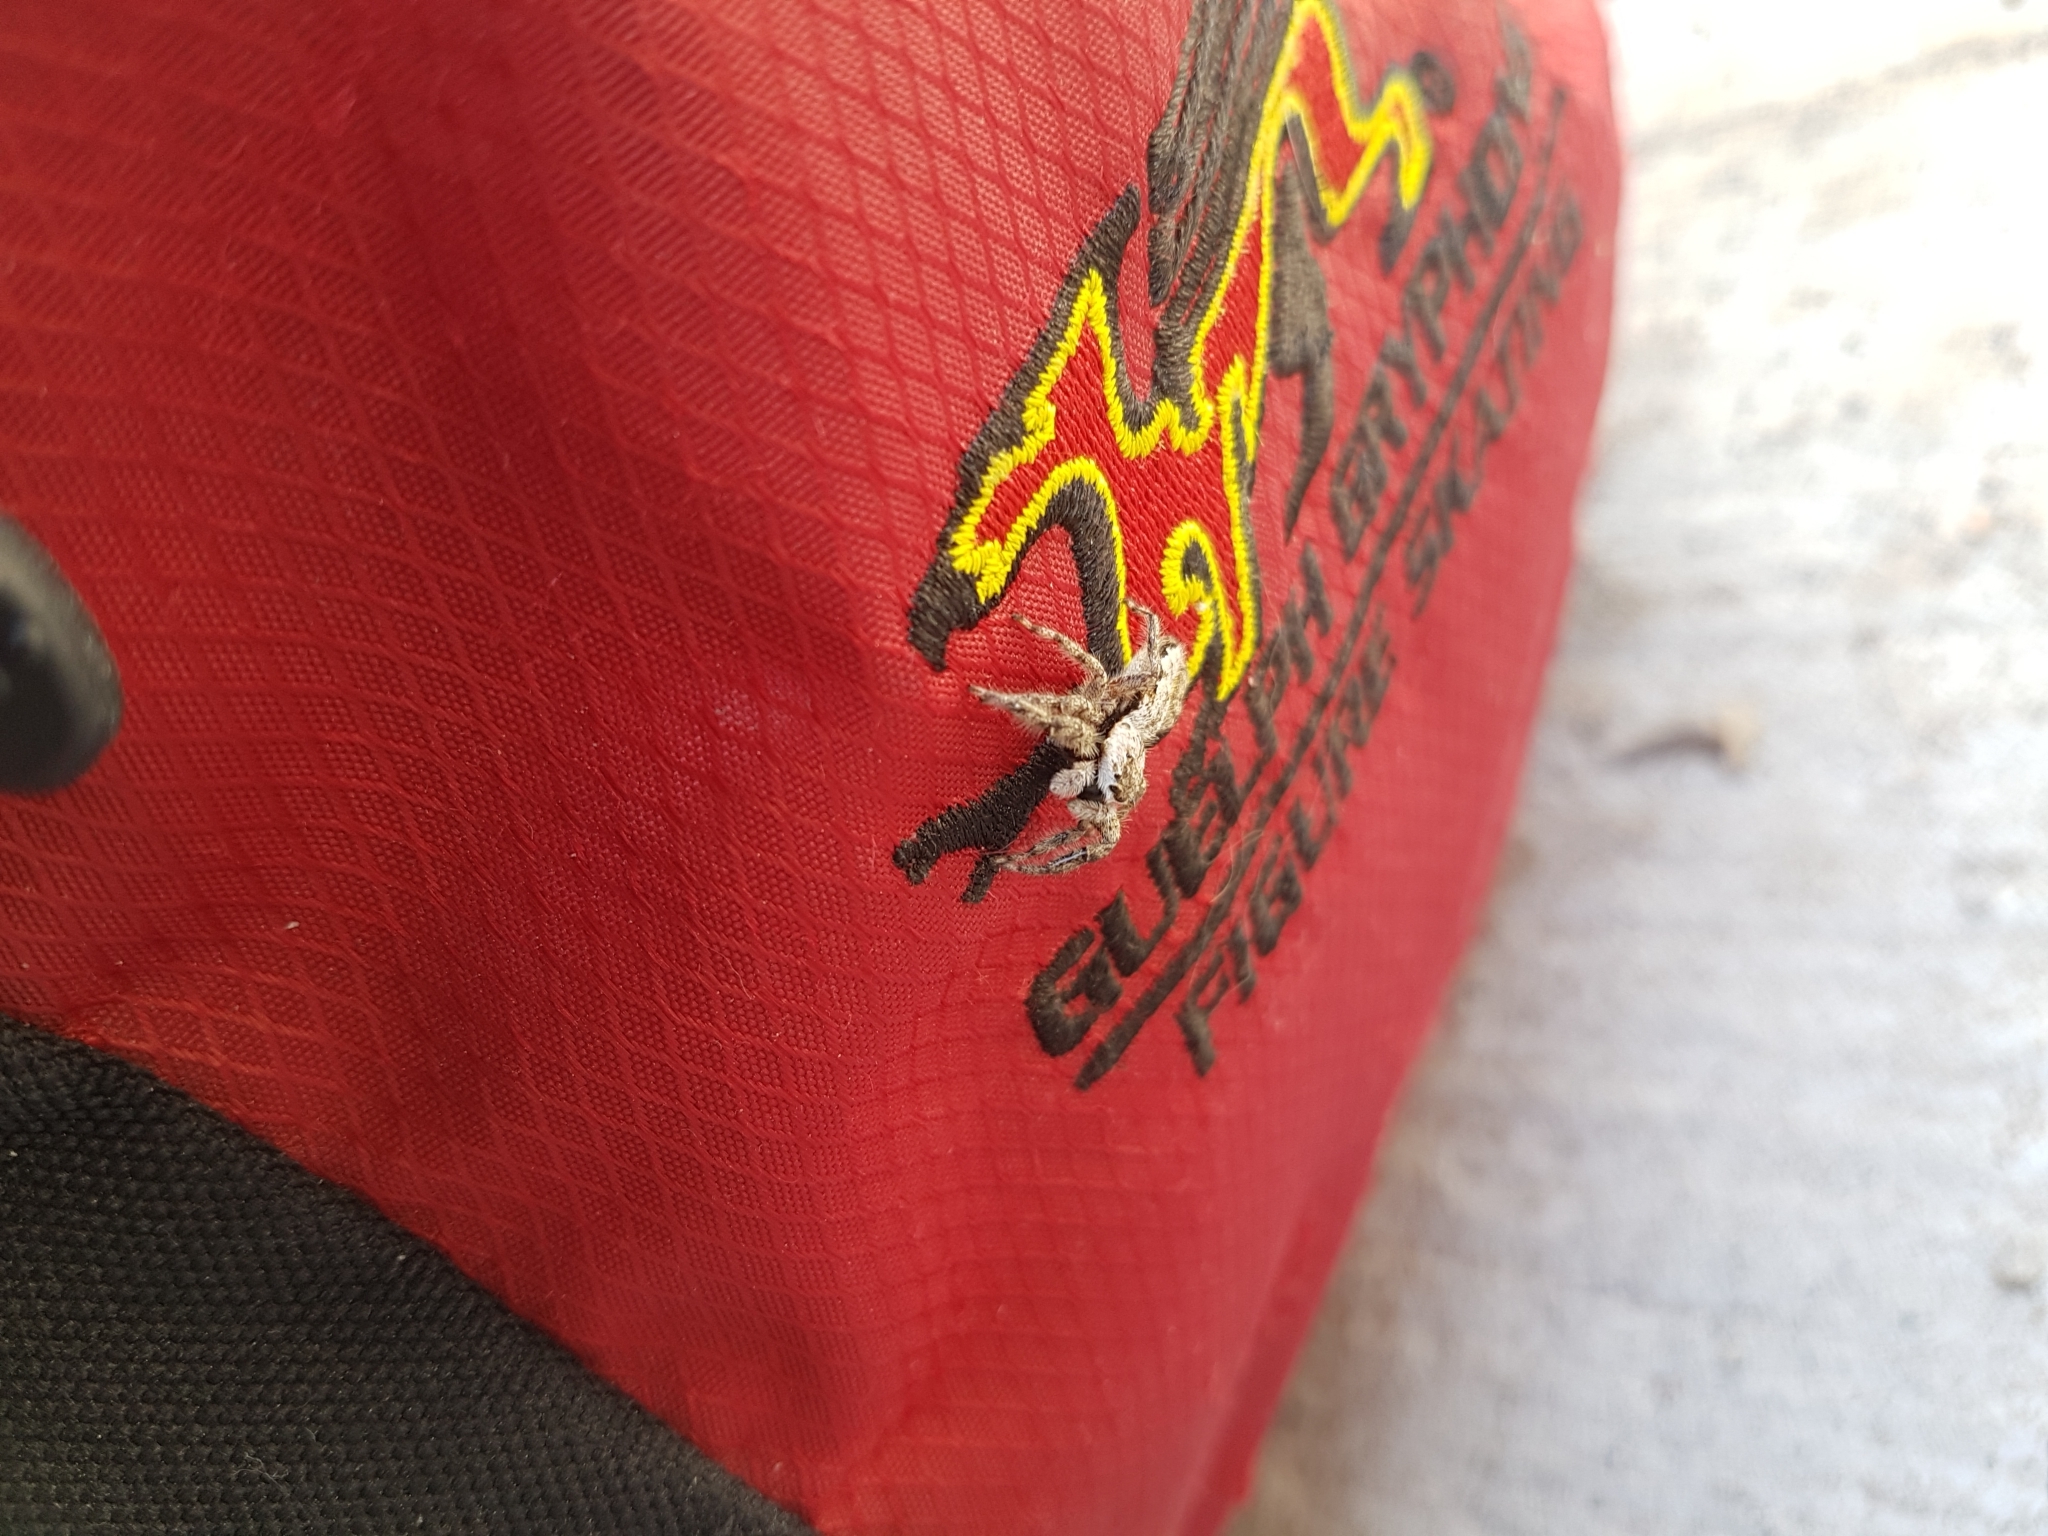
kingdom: Animalia
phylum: Arthropoda
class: Arachnida
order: Araneae
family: Salticidae
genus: Platycryptus
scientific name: Platycryptus undatus
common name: Tan jumping spider
